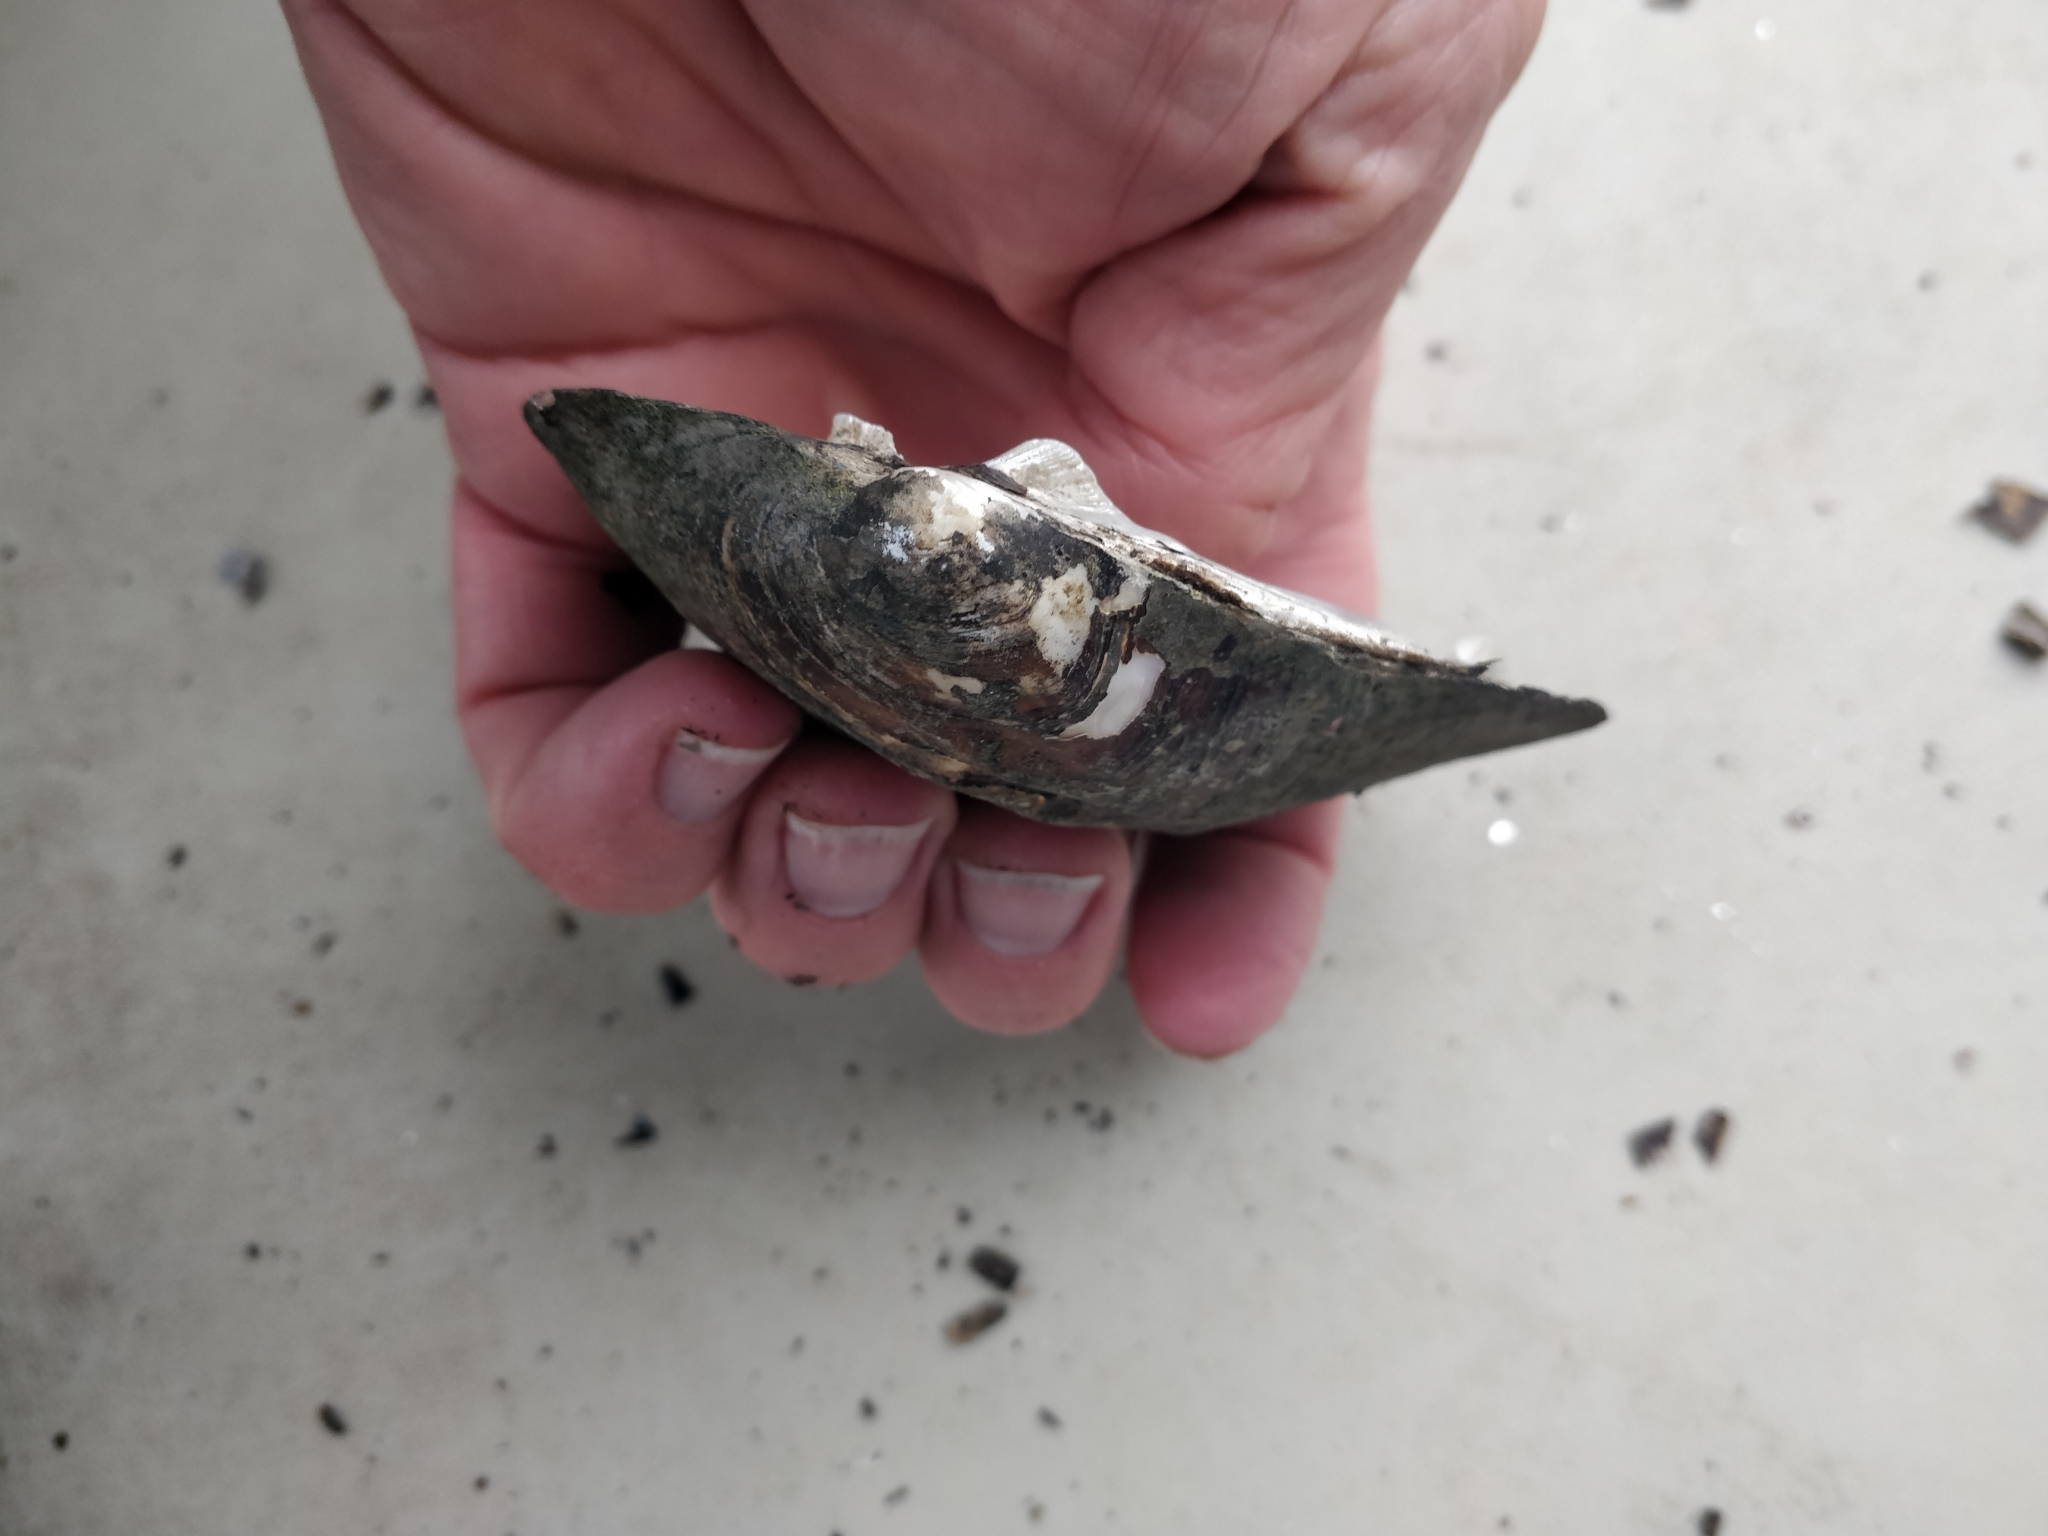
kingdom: Animalia
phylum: Mollusca
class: Bivalvia
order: Unionida
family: Unionidae
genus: Amblema
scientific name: Amblema plicata
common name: Threeridge
